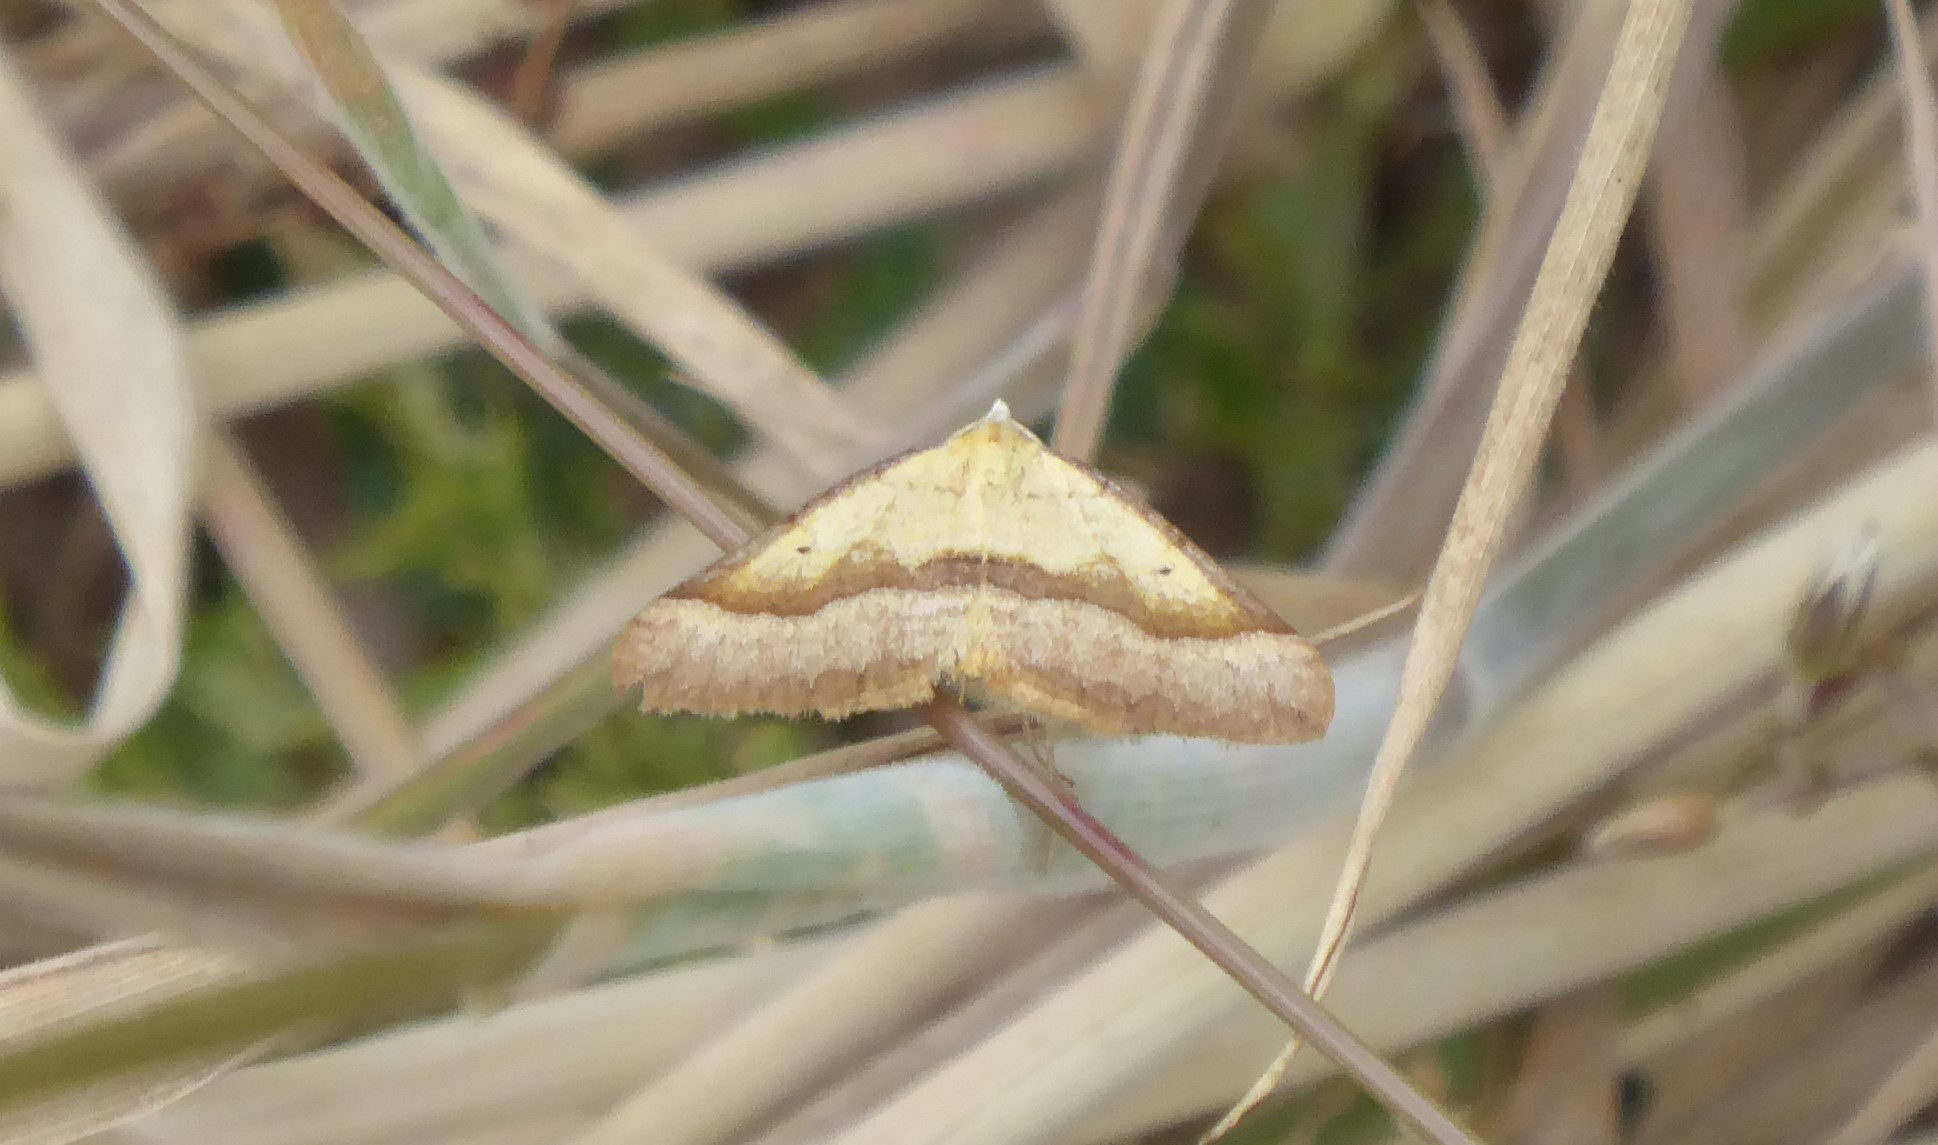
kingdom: Animalia
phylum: Arthropoda
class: Insecta
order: Lepidoptera
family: Geometridae
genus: Anachloris
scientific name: Anachloris subochraria
